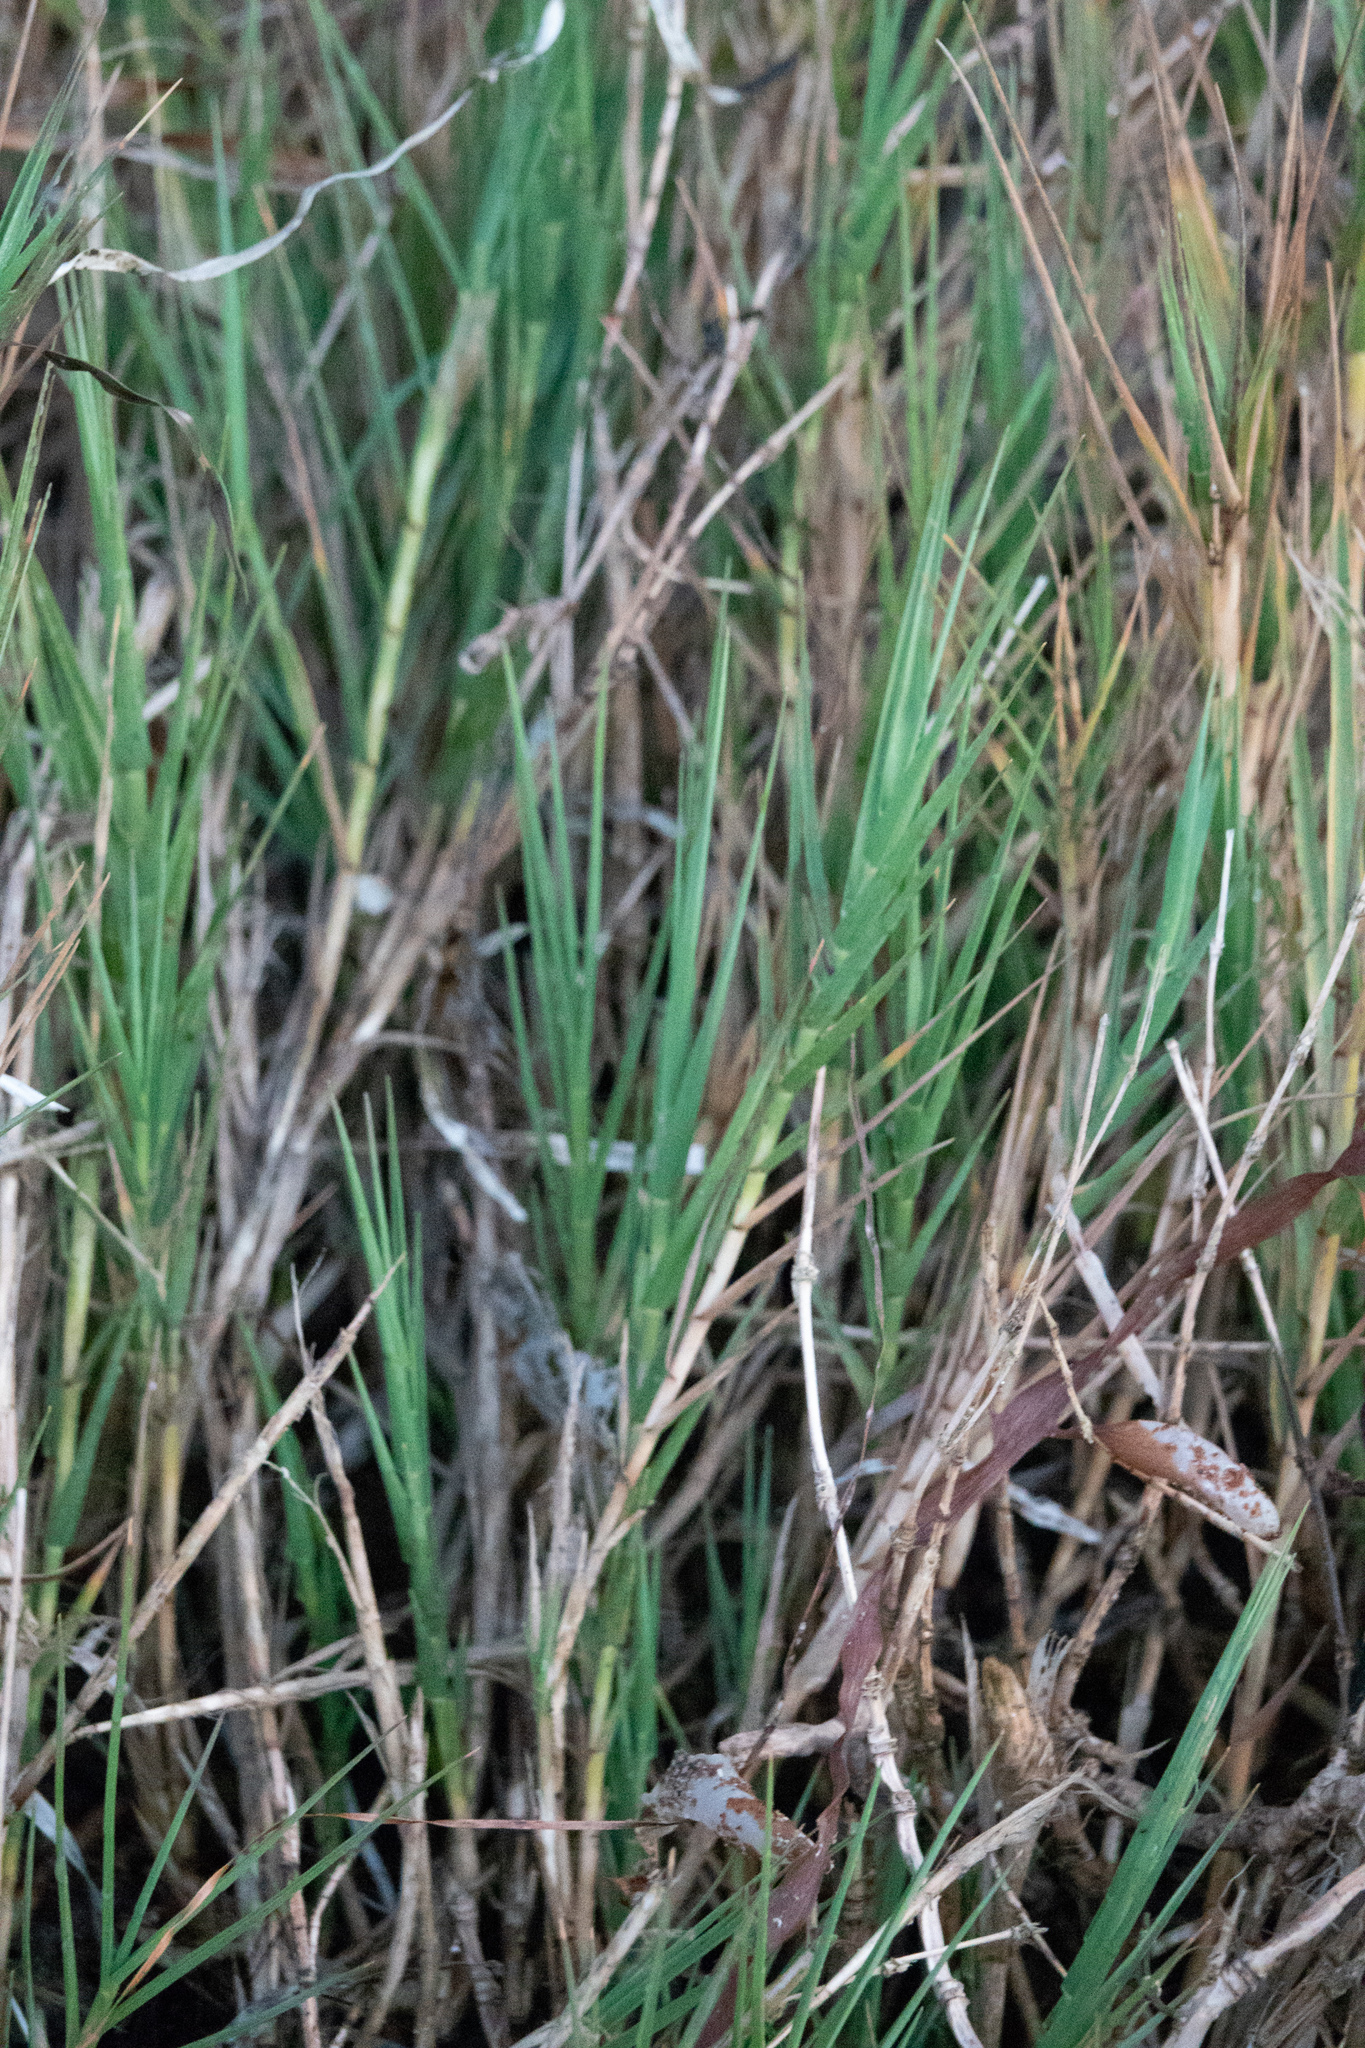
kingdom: Plantae
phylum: Tracheophyta
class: Liliopsida
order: Poales
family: Poaceae
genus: Distichlis
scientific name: Distichlis spicata
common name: Saltgrass
